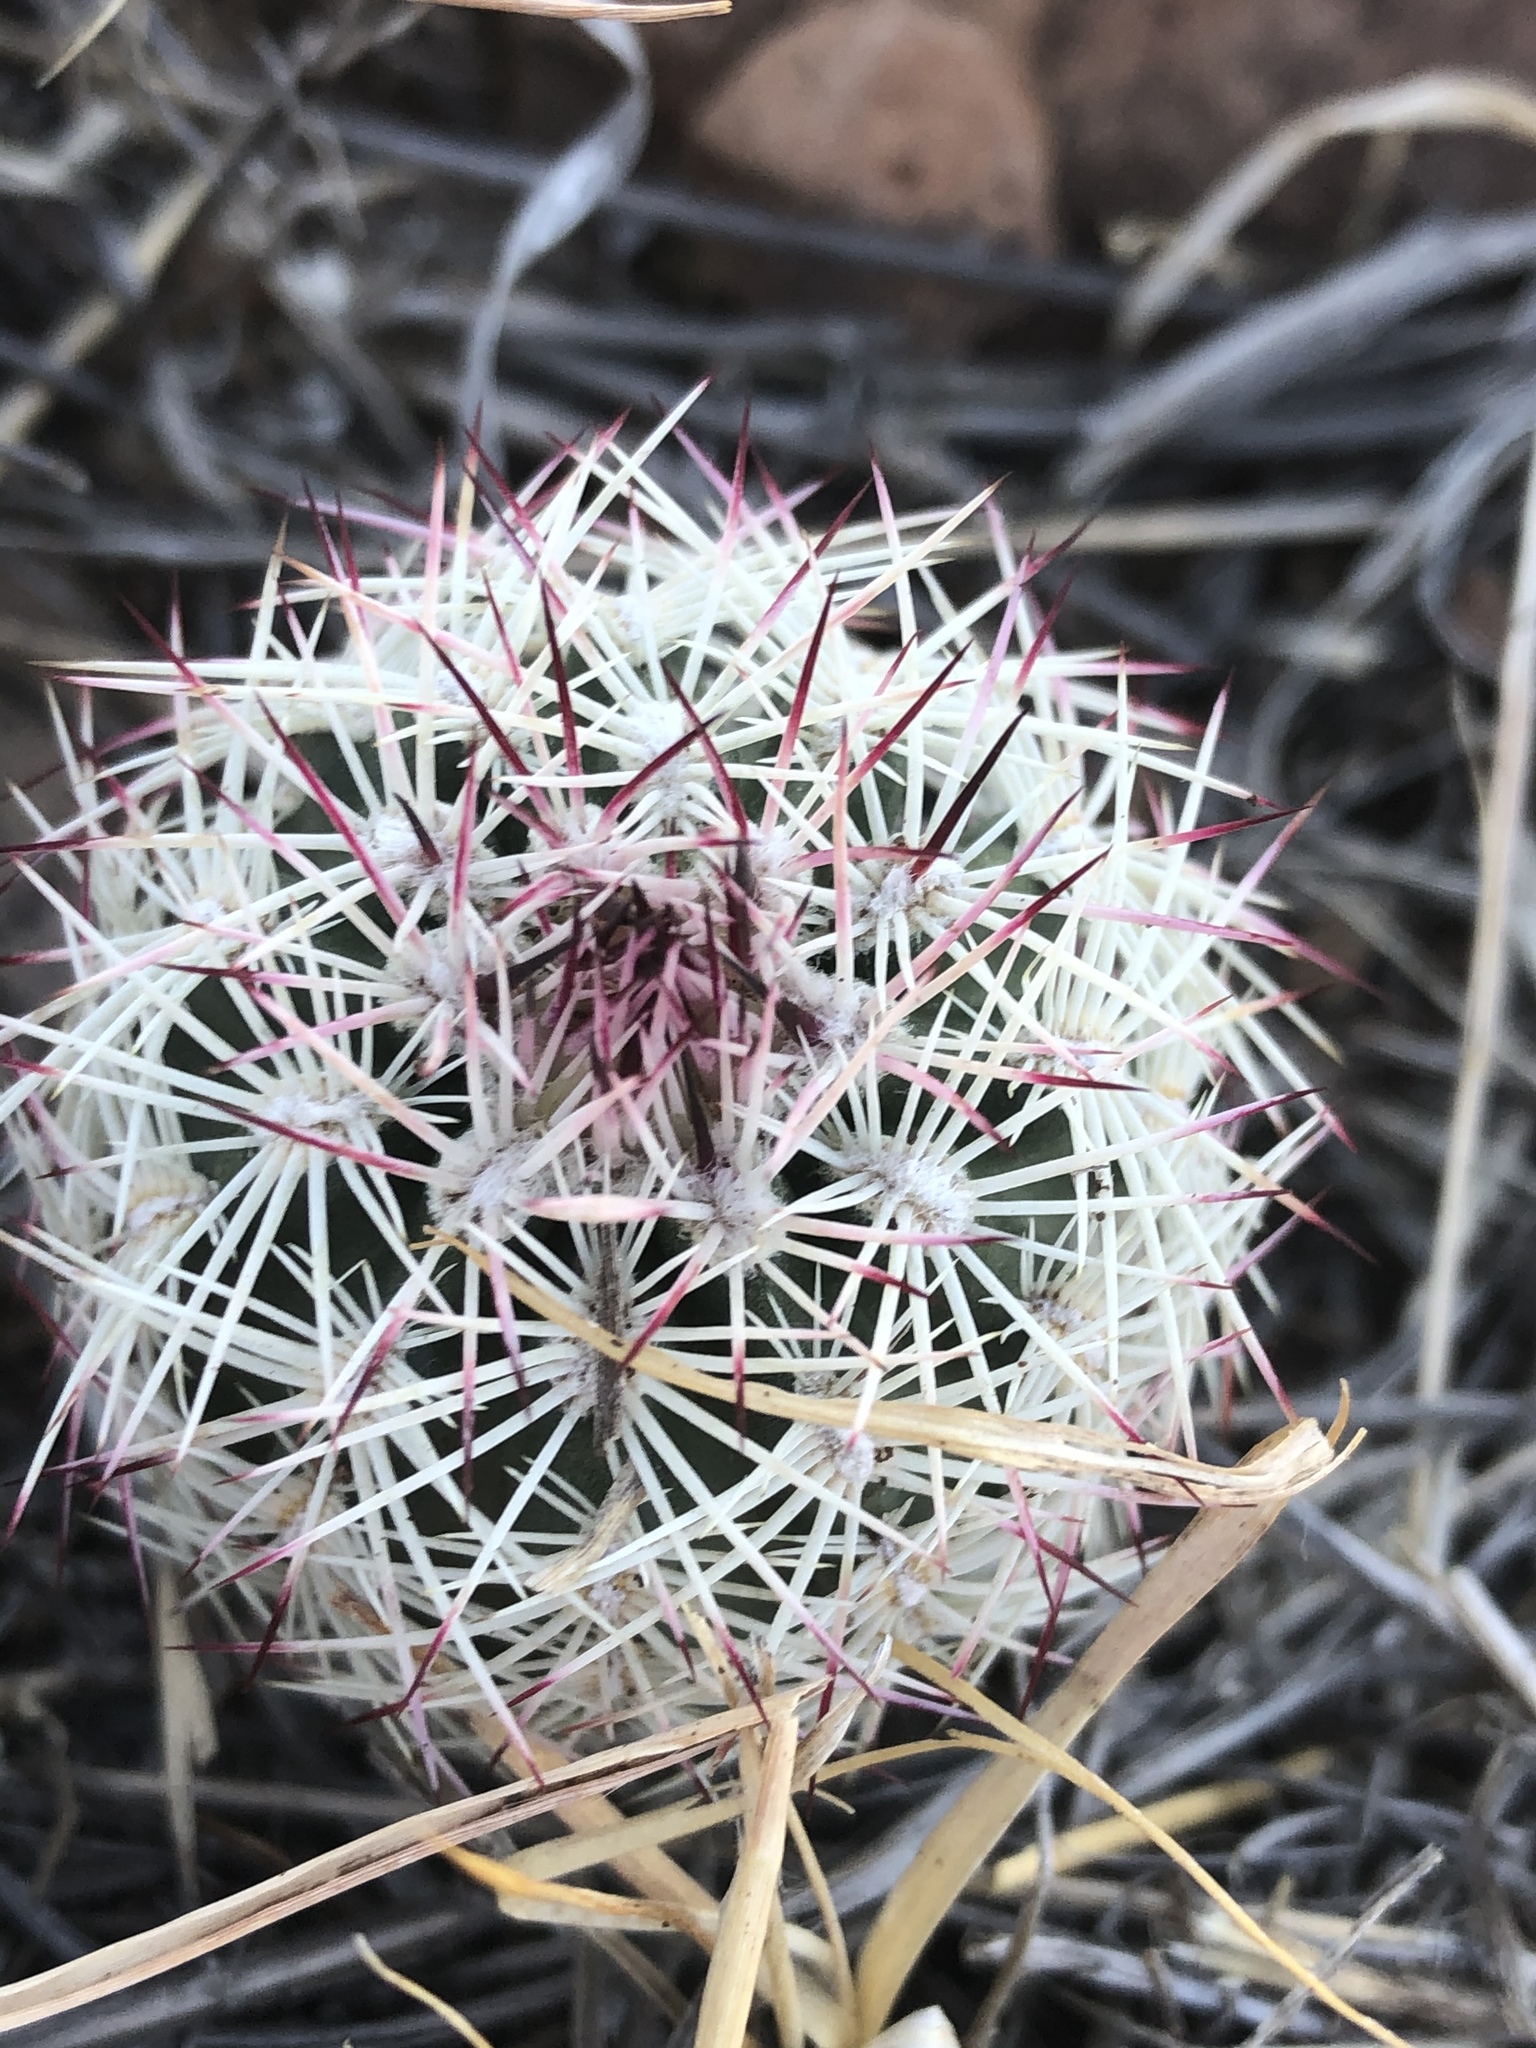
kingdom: Plantae
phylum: Tracheophyta
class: Magnoliopsida
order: Caryophyllales
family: Cactaceae
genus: Echinocereus
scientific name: Echinocereus viridiflorus
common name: Nylon hedgehog cactus
